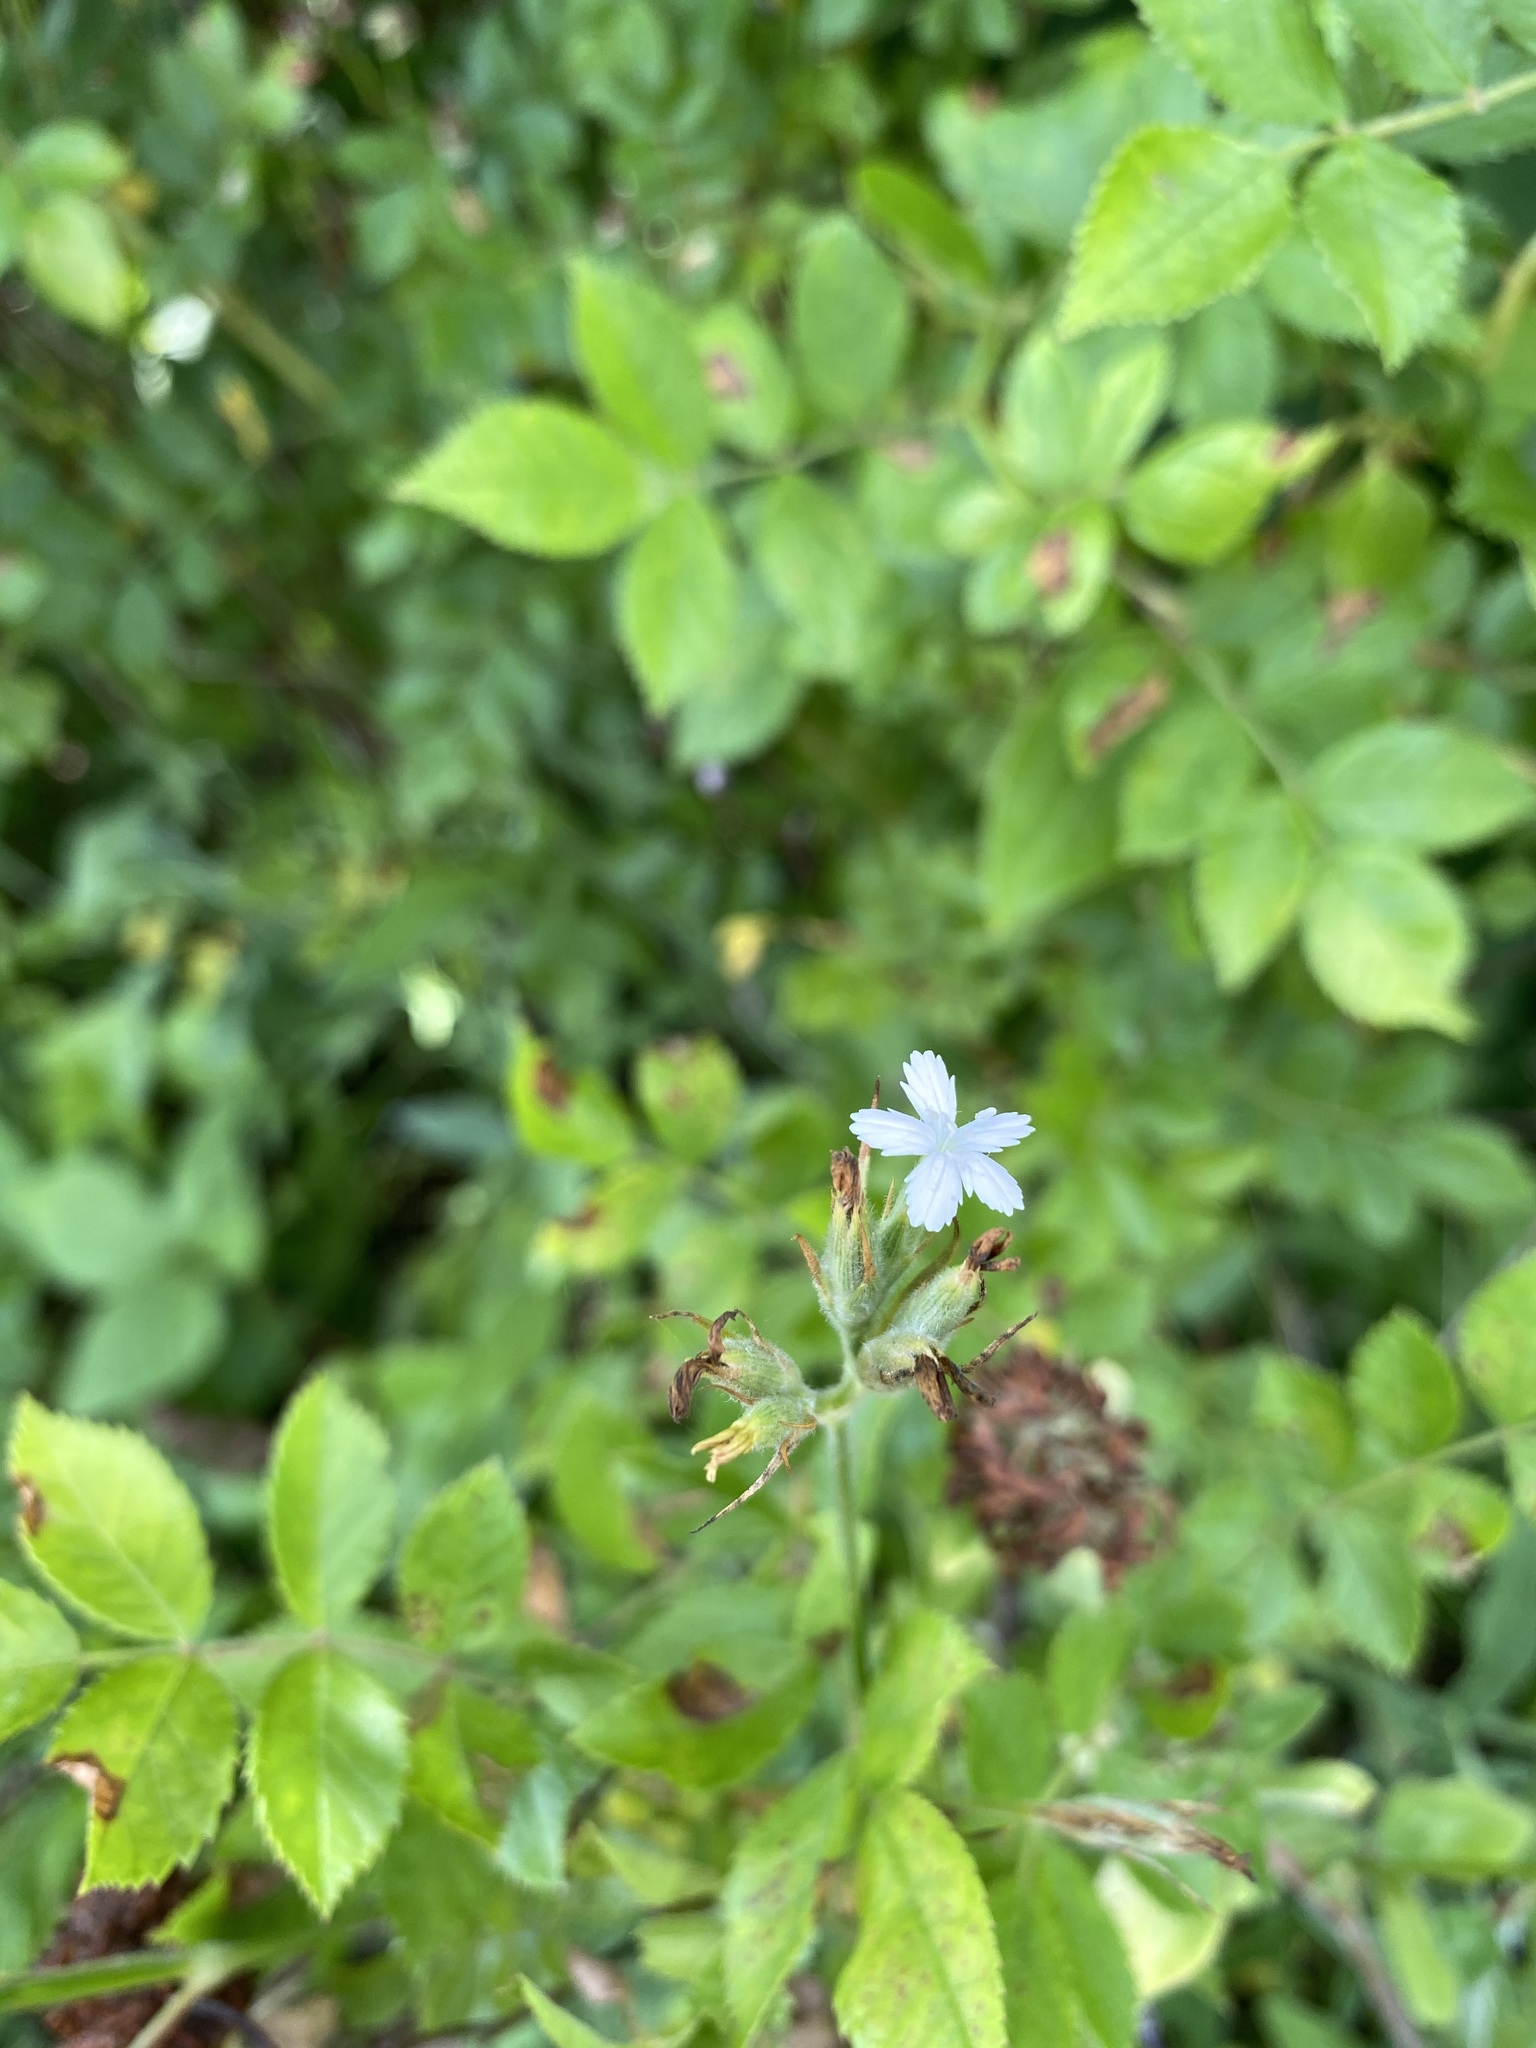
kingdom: Plantae
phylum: Tracheophyta
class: Magnoliopsida
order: Caryophyllales
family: Caryophyllaceae
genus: Dianthus
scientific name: Dianthus armeria
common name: Deptford pink
